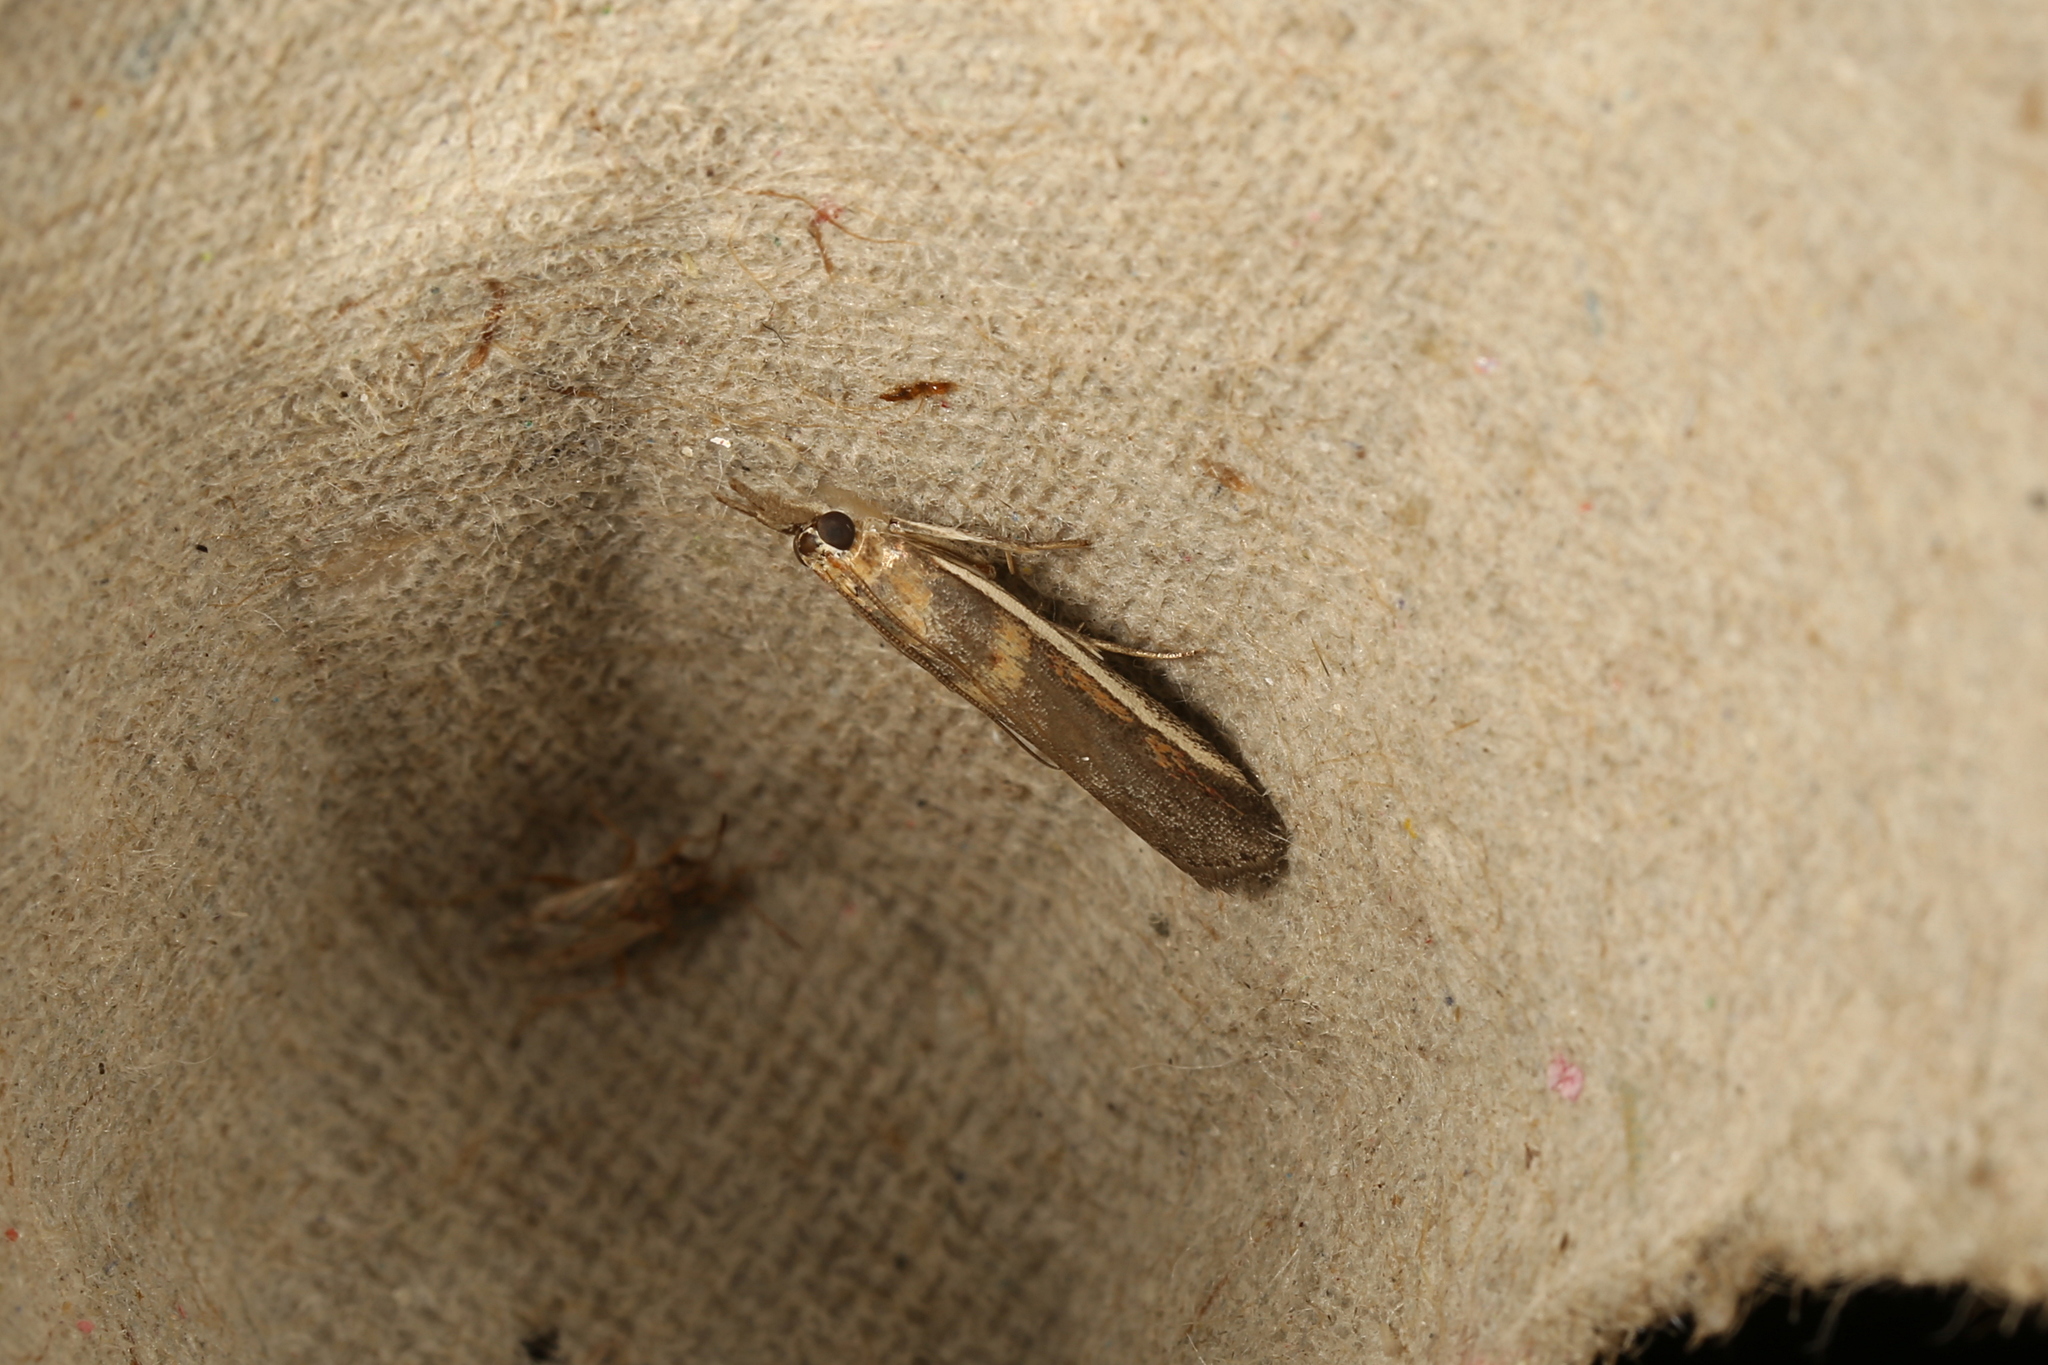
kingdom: Animalia
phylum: Arthropoda
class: Insecta
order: Lepidoptera
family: Pyralidae
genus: Etiella
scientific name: Etiella behrii
